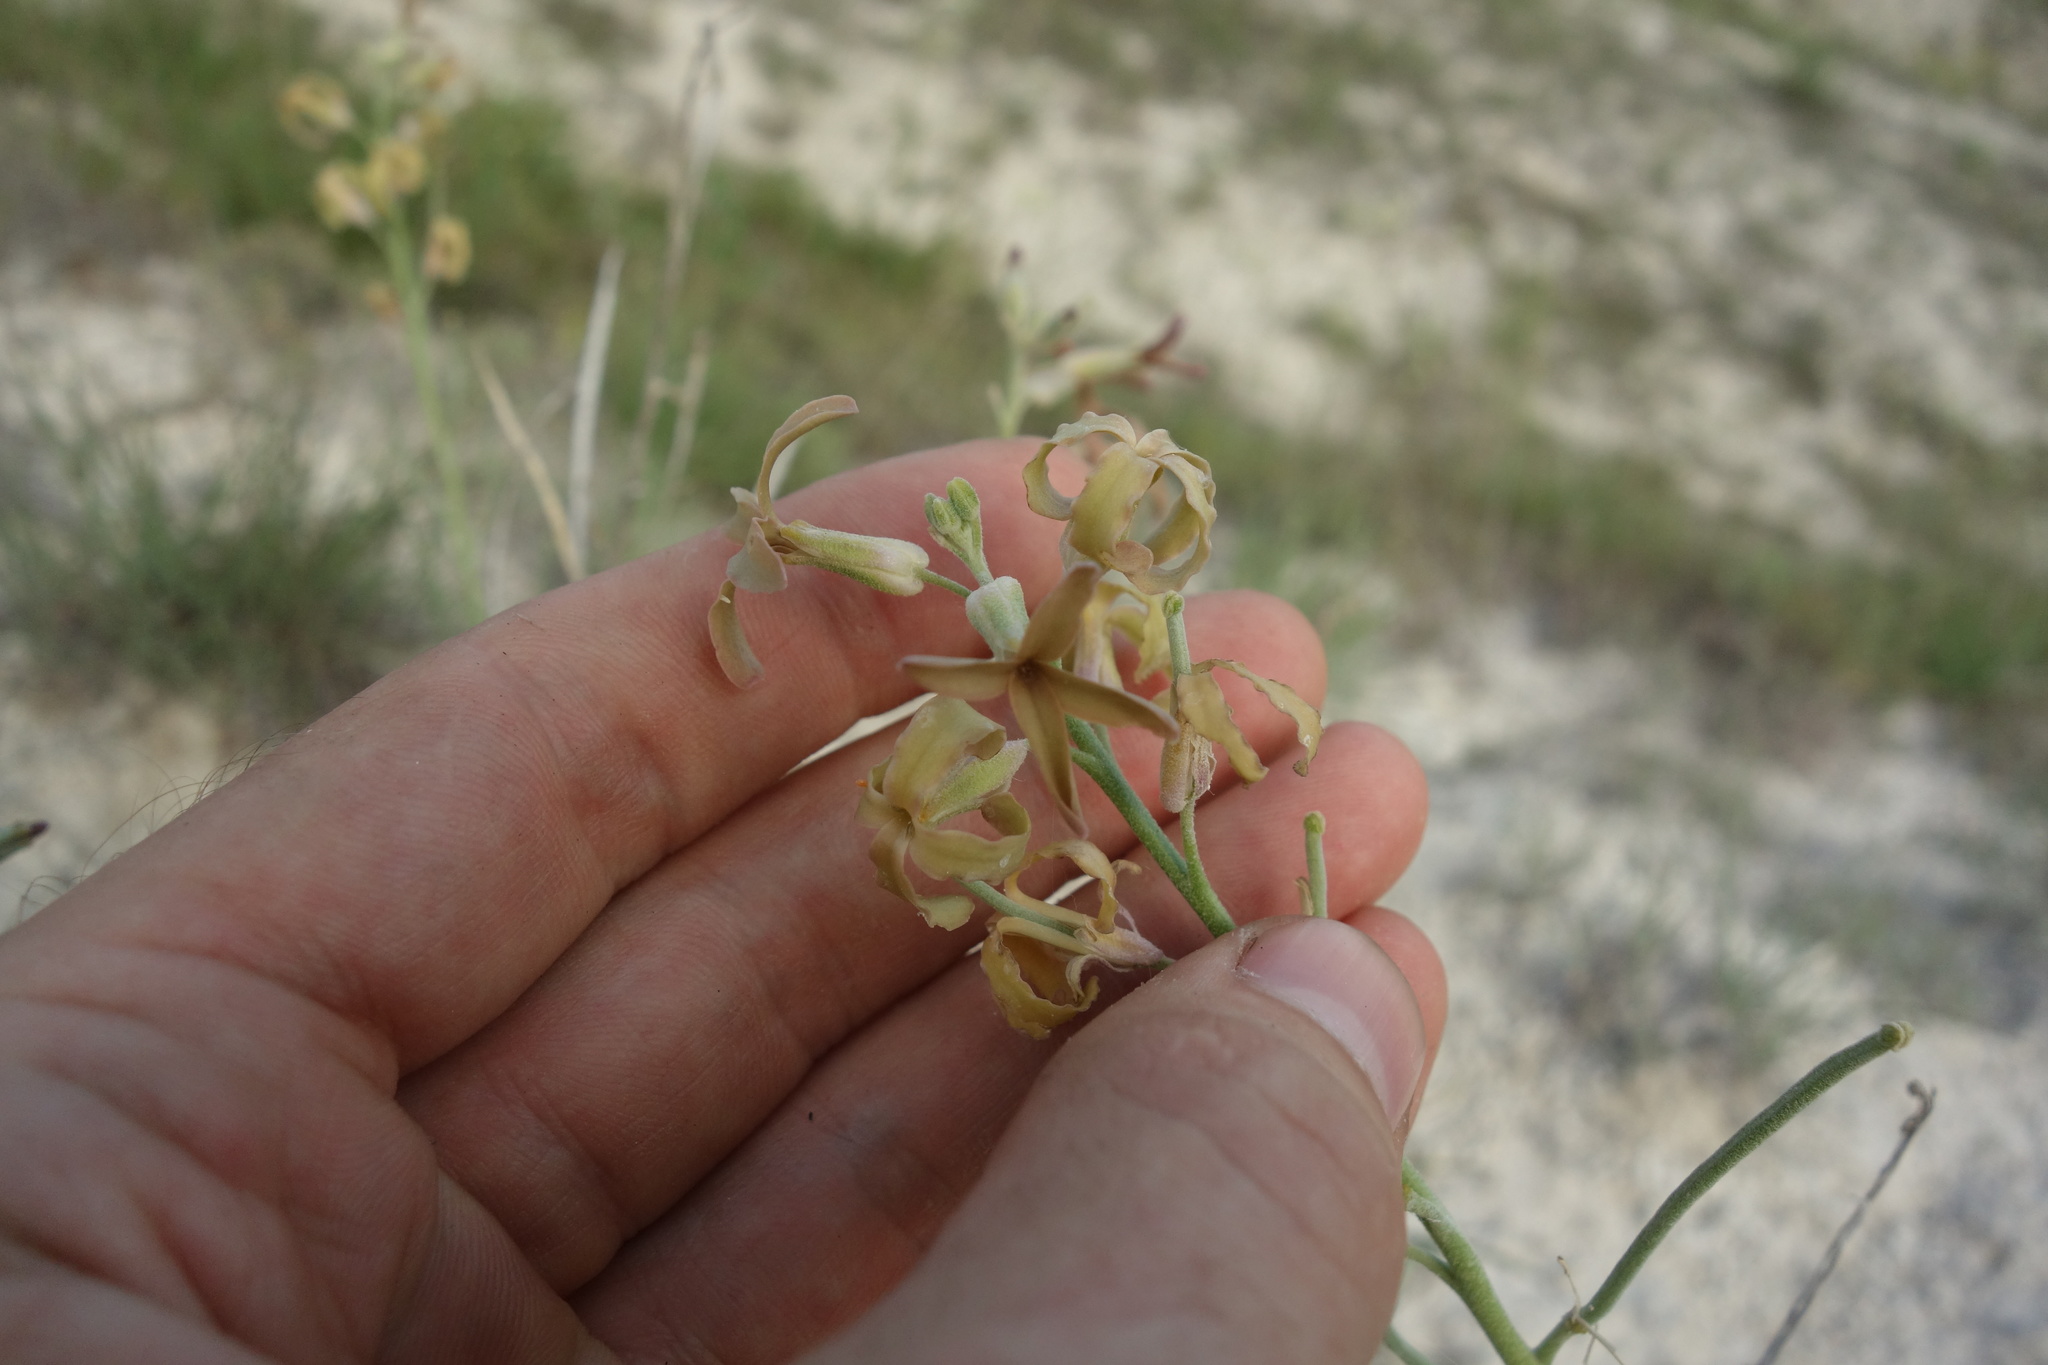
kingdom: Plantae
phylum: Tracheophyta
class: Magnoliopsida
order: Brassicales
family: Brassicaceae
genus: Matthiola
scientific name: Matthiola fragrans
